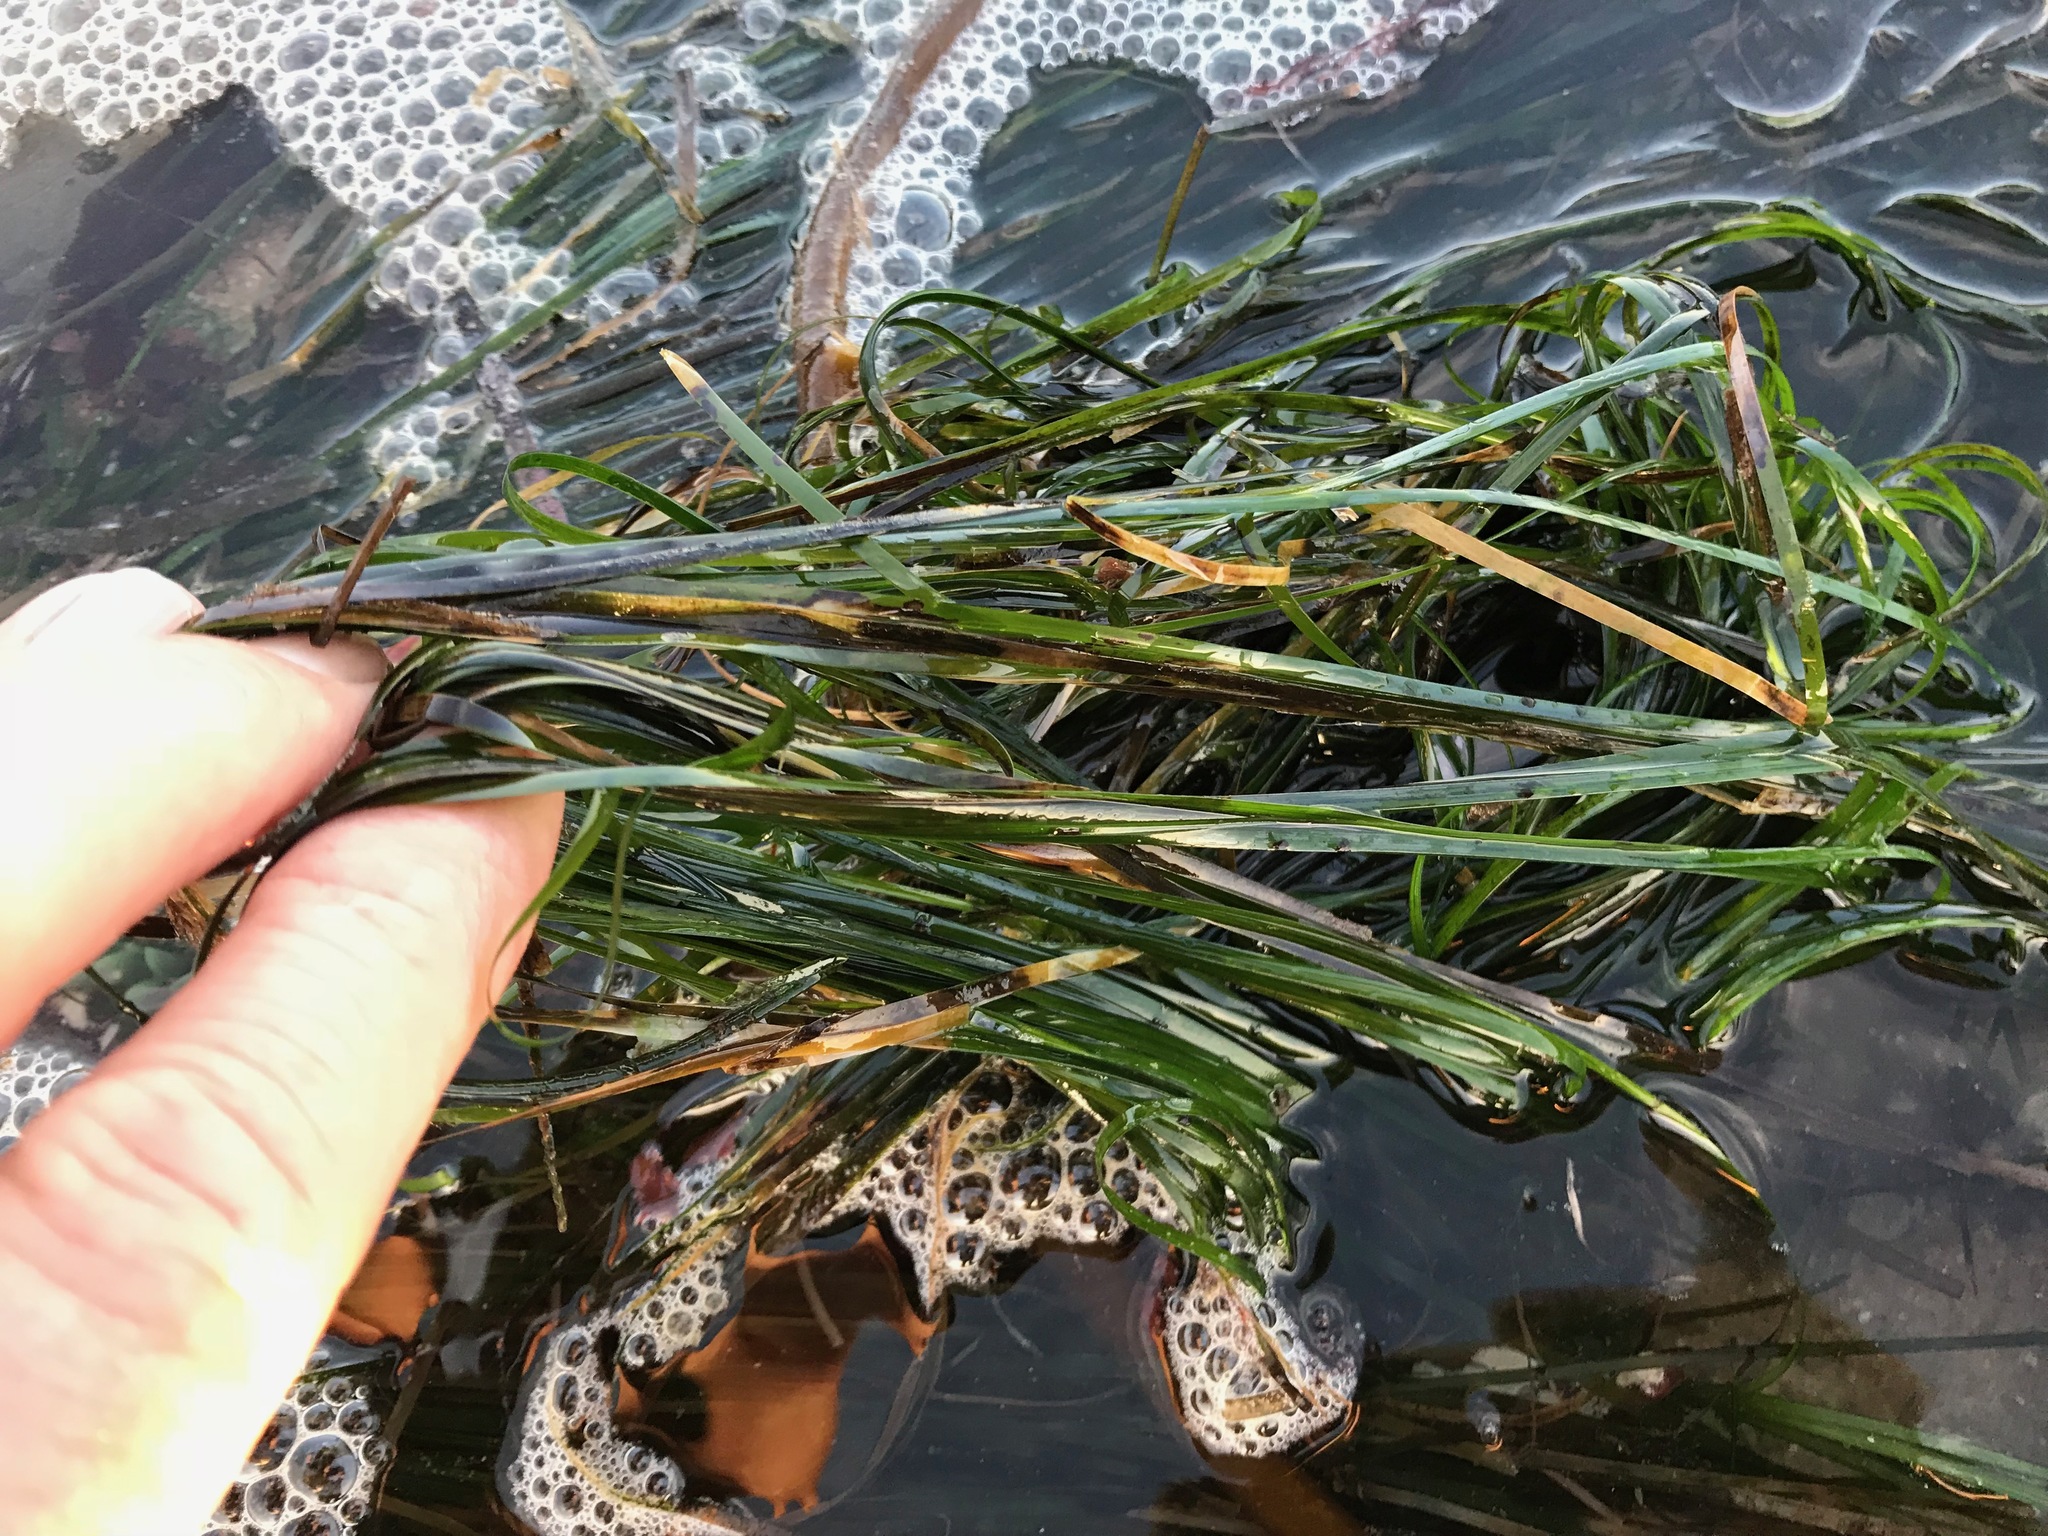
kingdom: Plantae
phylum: Tracheophyta
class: Liliopsida
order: Alismatales
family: Zosteraceae
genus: Phyllospadix
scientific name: Phyllospadix scouleri
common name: Species code: ps
